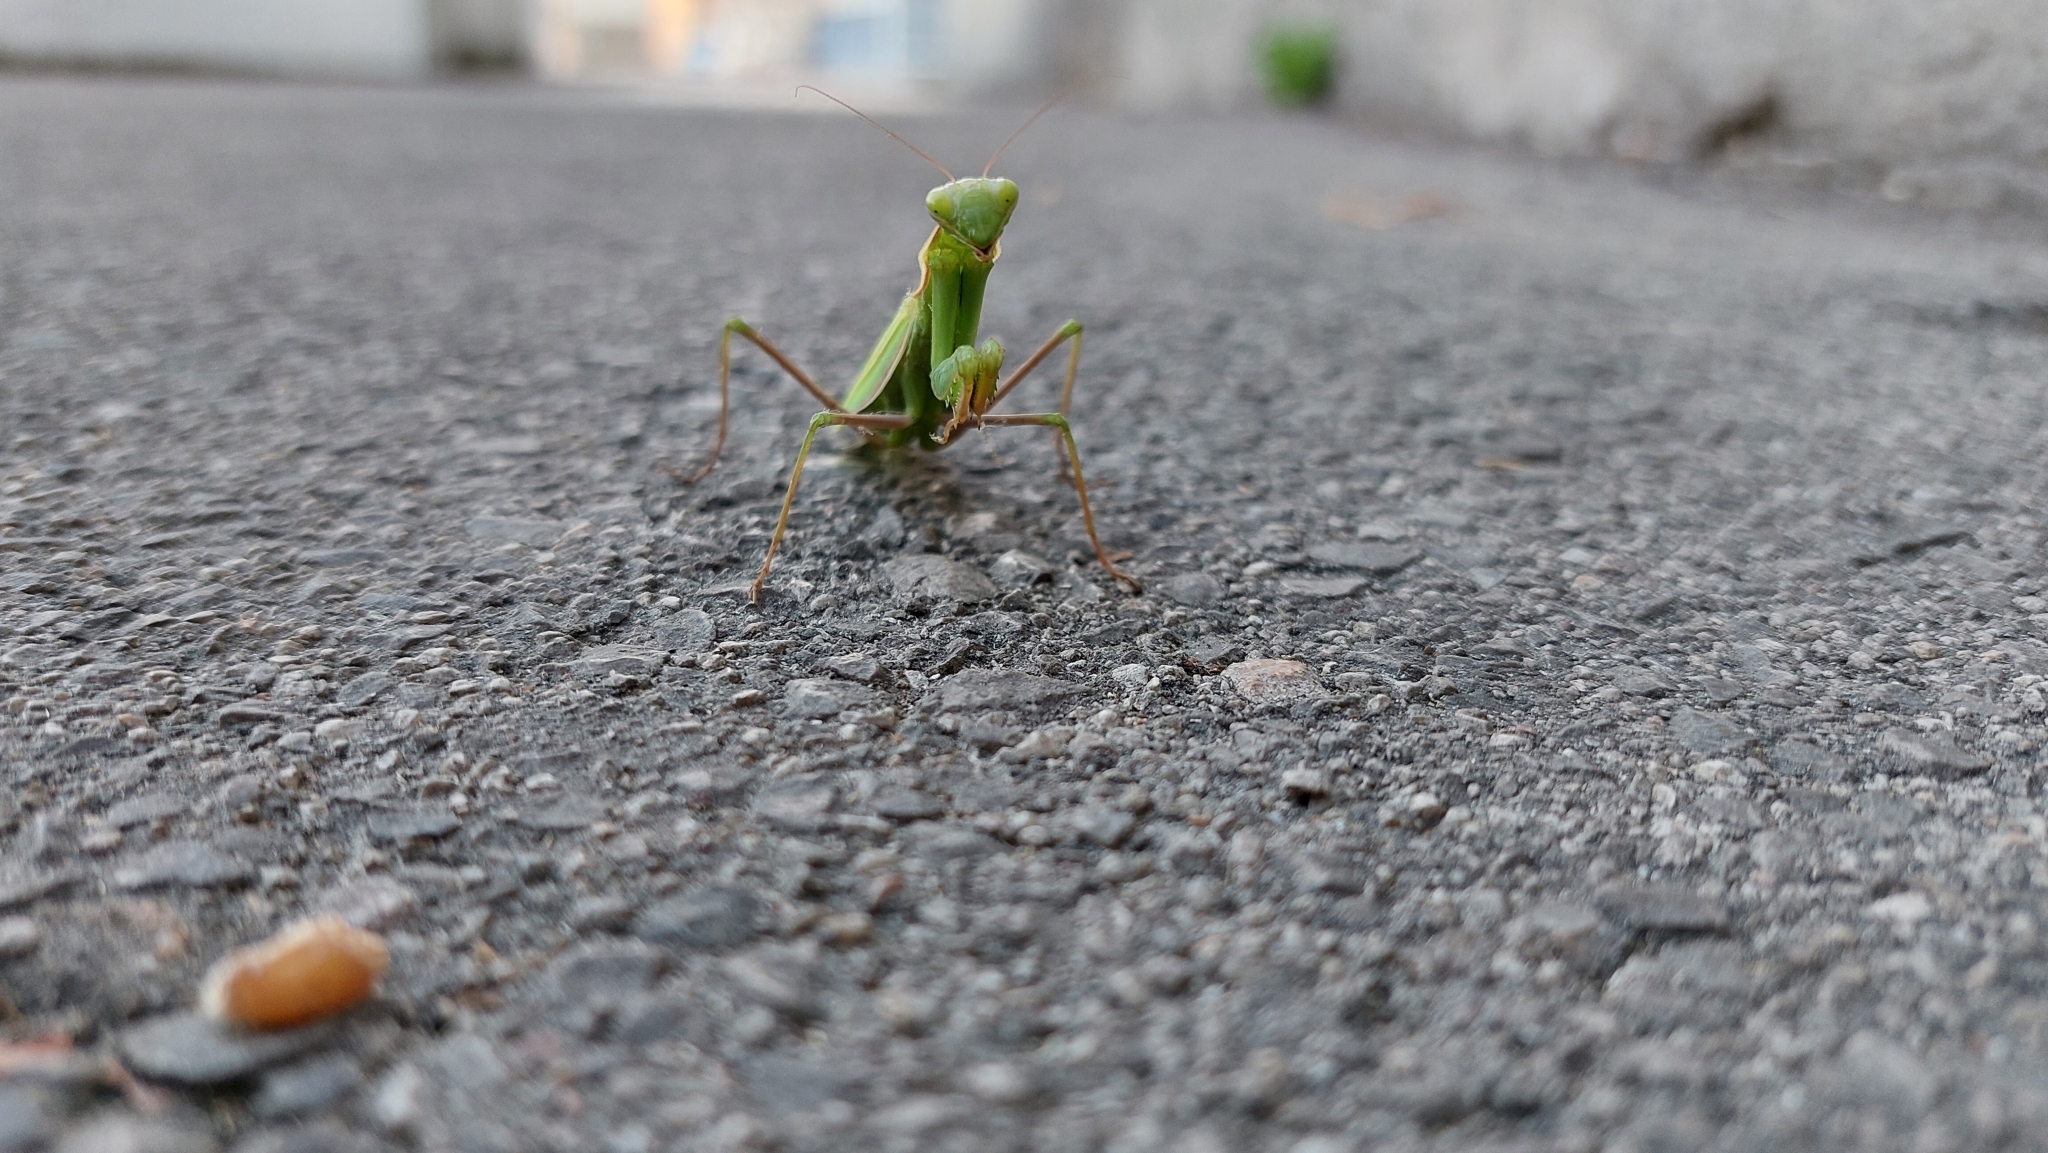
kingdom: Animalia
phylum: Arthropoda
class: Insecta
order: Mantodea
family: Mantidae
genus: Mantis
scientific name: Mantis religiosa
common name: Praying mantis
